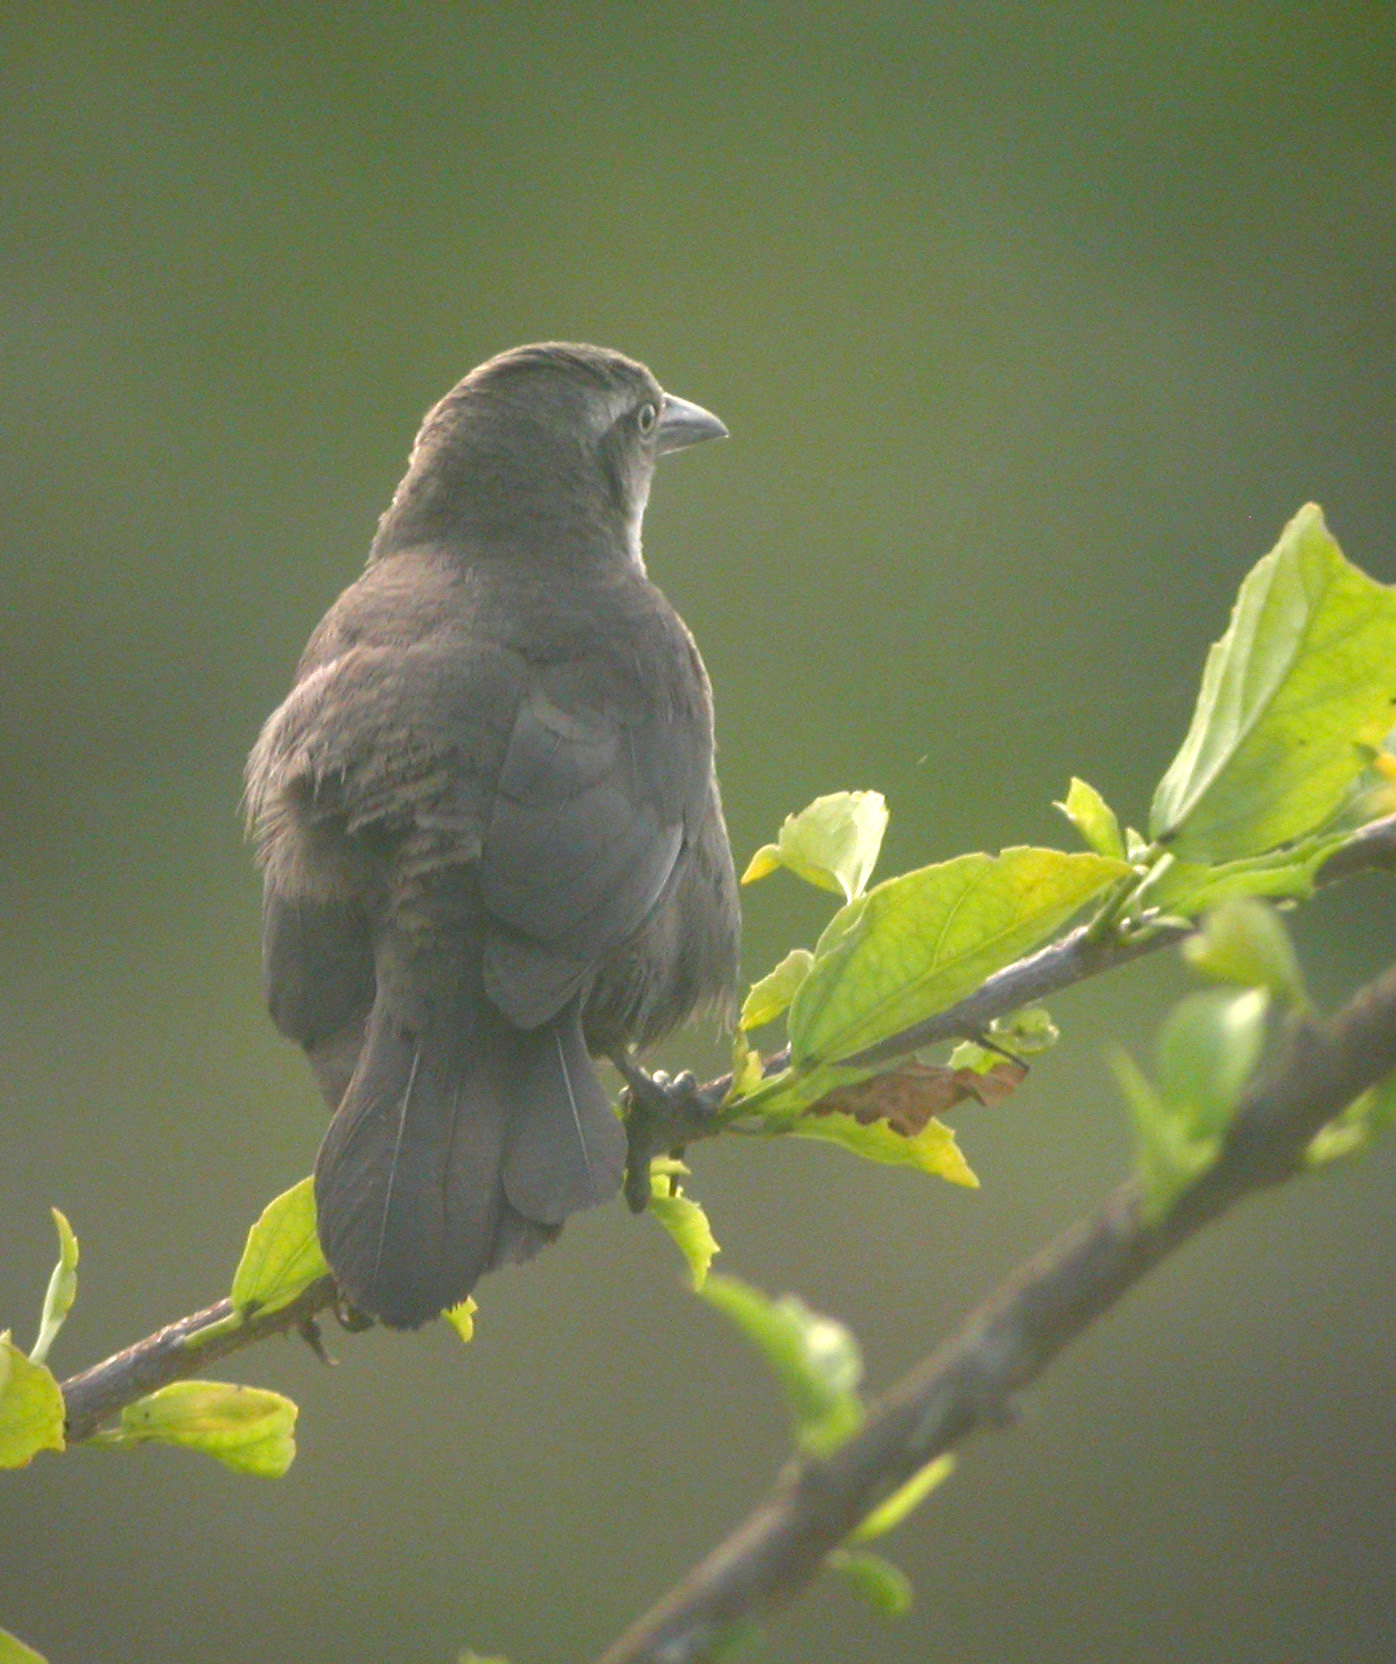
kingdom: Animalia
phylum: Chordata
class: Aves
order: Passeriformes
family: Icteridae
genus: Quiscalus
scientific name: Quiscalus lugubris
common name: Carib grackle
